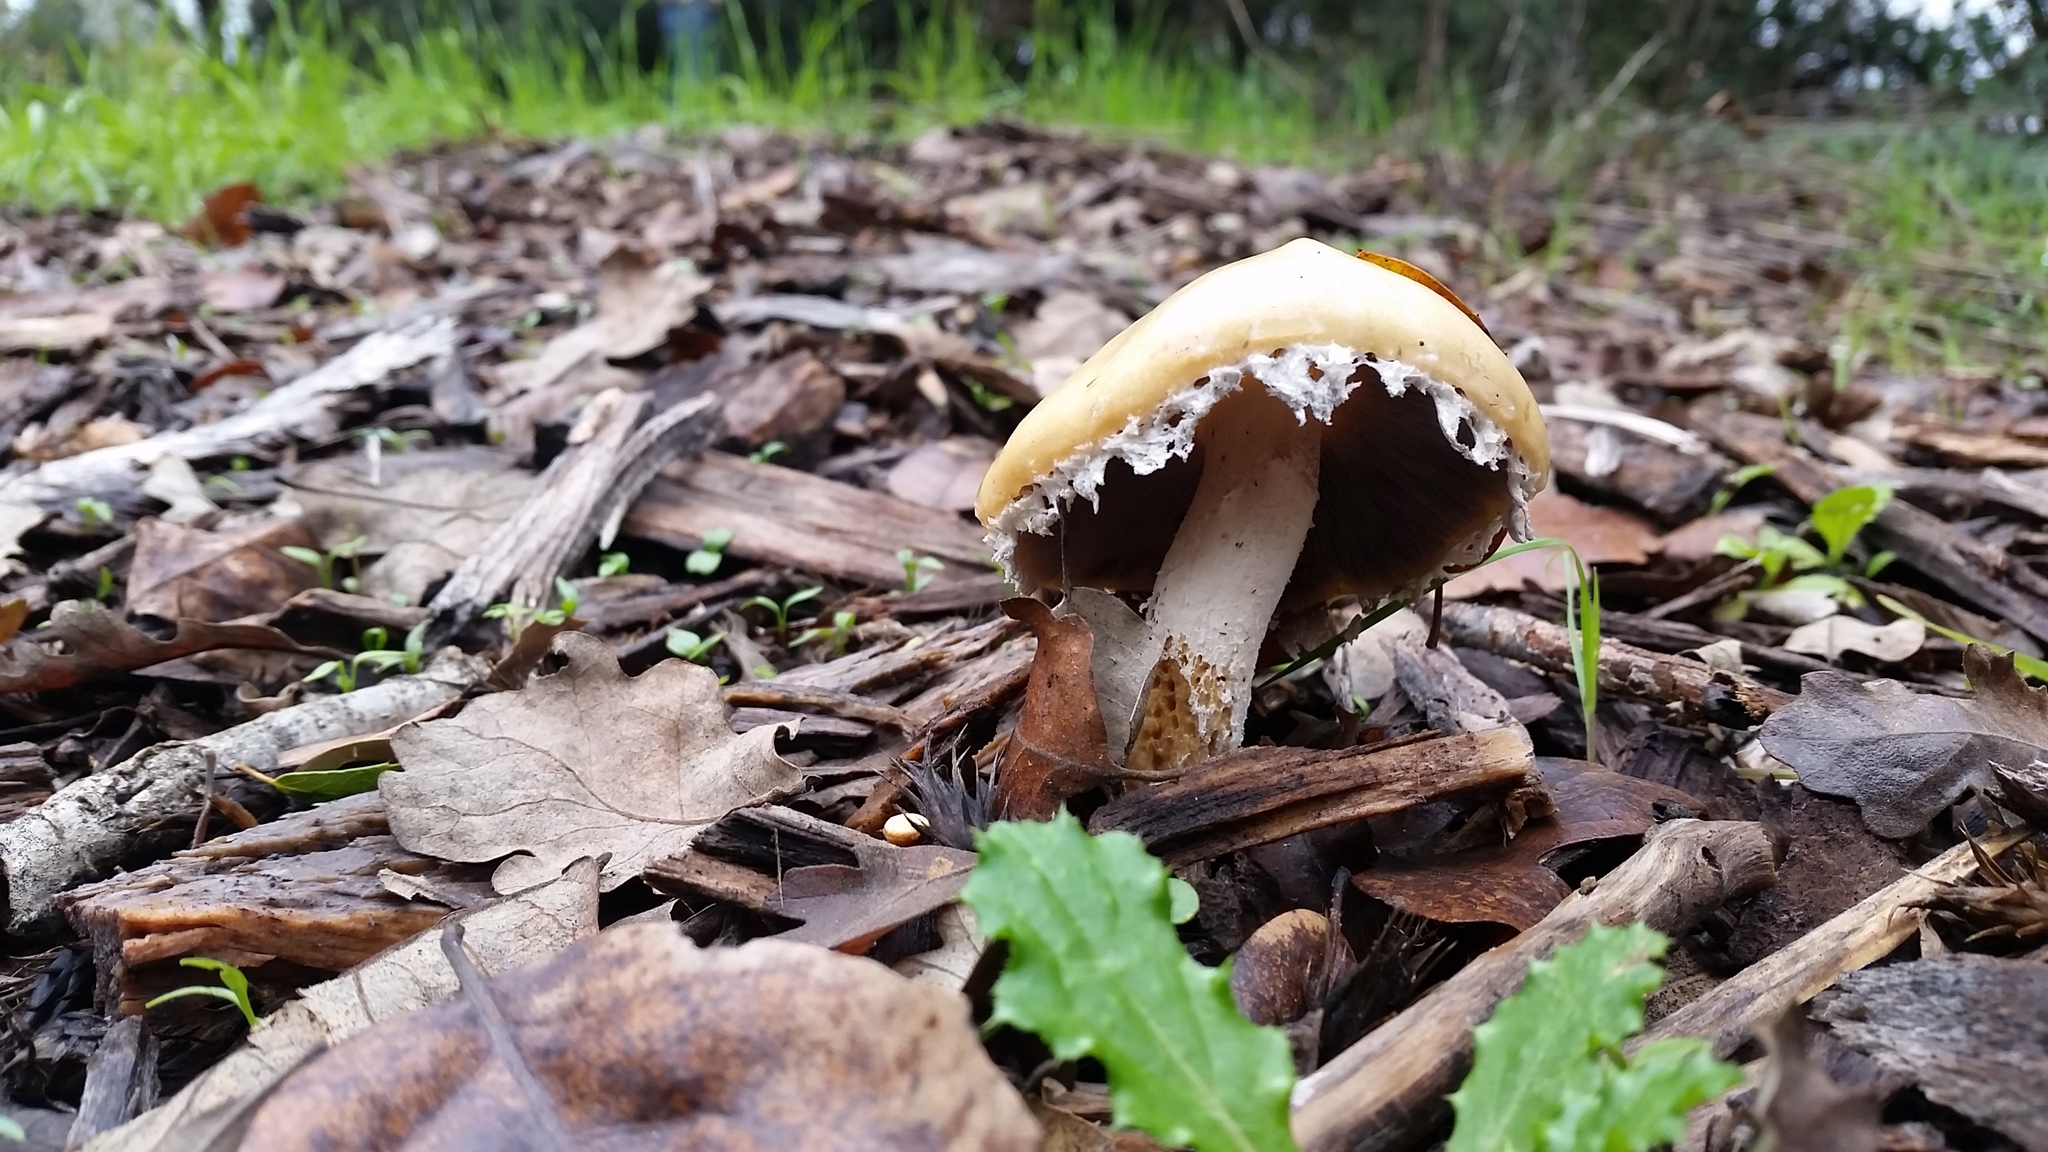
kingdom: Fungi
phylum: Basidiomycota
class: Agaricomycetes
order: Agaricales
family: Strophariaceae
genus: Stropharia
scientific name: Stropharia ambigua
